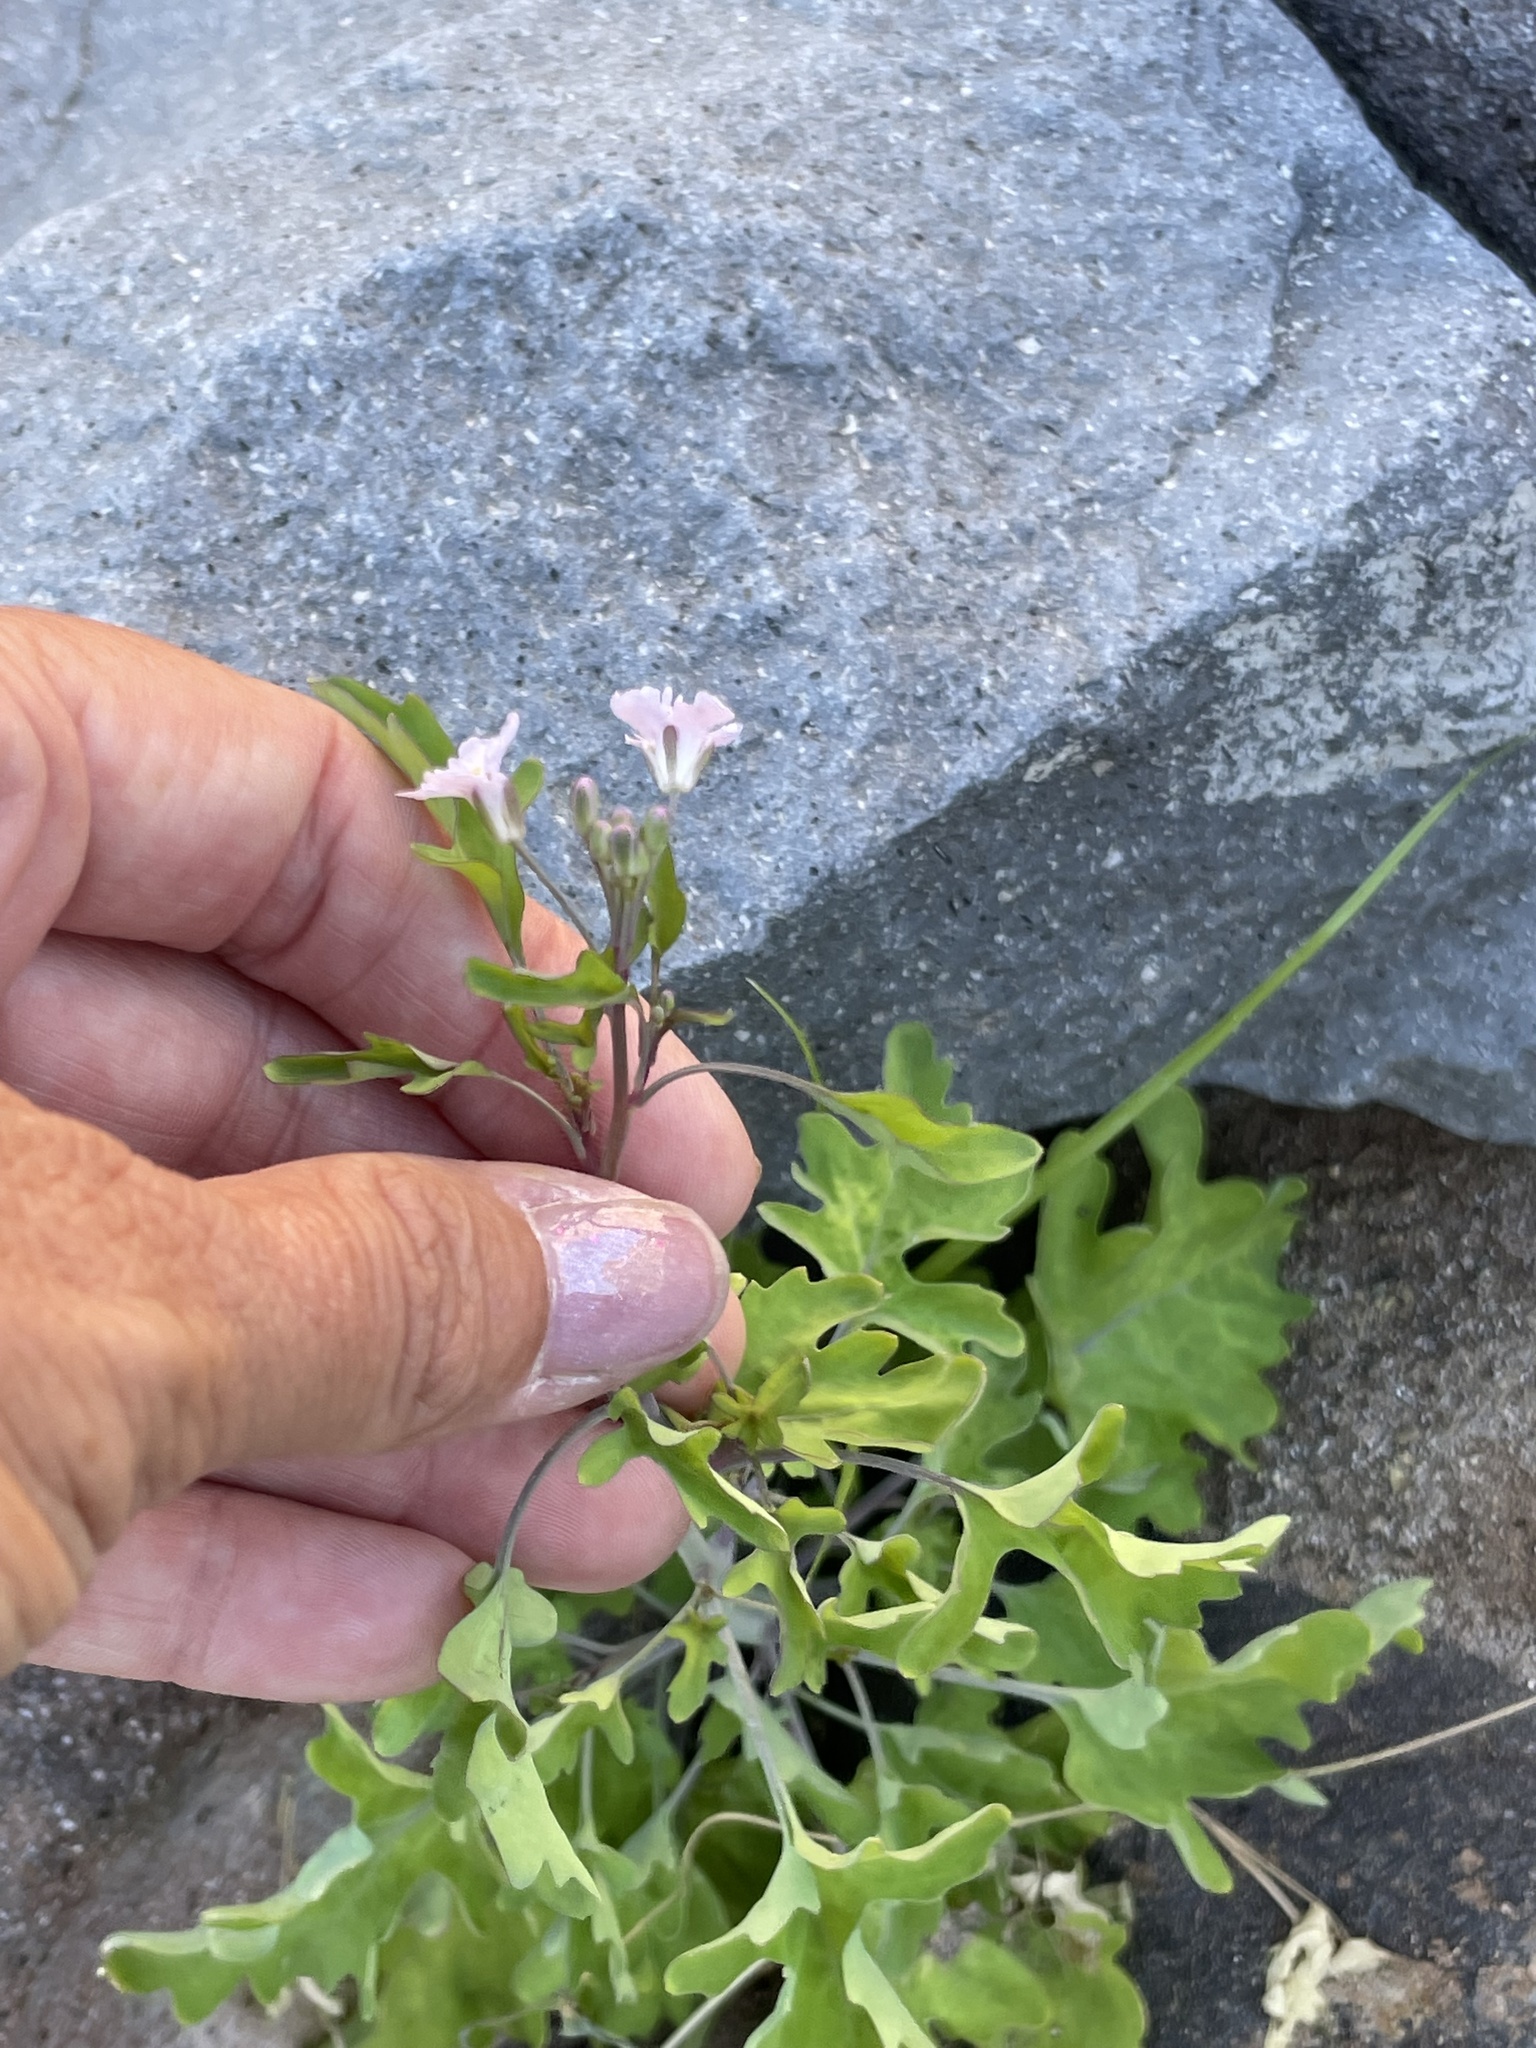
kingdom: Plantae
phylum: Tracheophyta
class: Magnoliopsida
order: Brassicales
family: Brassicaceae
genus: Dryopetalon
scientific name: Dryopetalon palmeri
